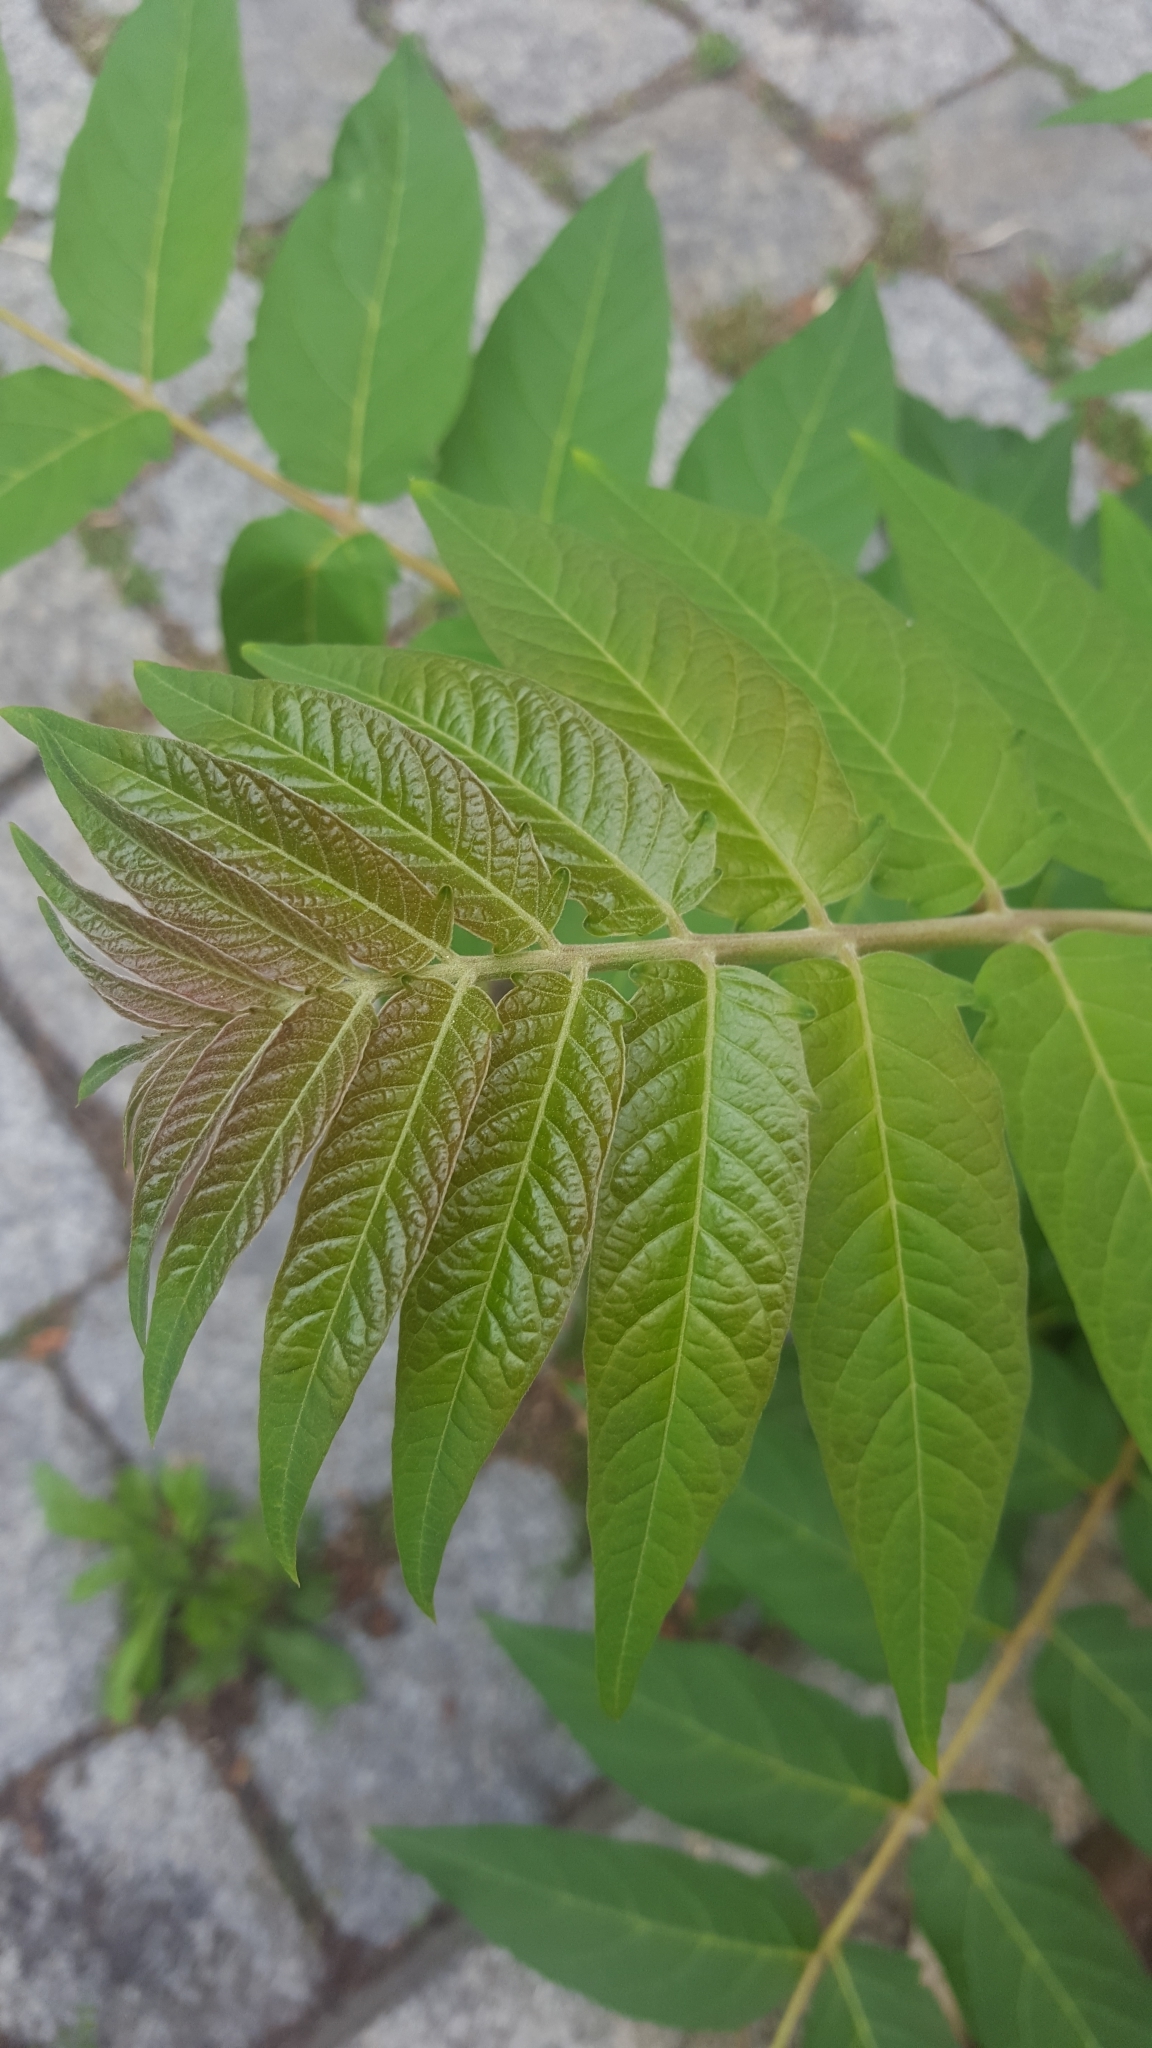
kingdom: Plantae
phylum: Tracheophyta
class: Magnoliopsida
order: Sapindales
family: Simaroubaceae
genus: Ailanthus
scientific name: Ailanthus altissima
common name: Tree-of-heaven
